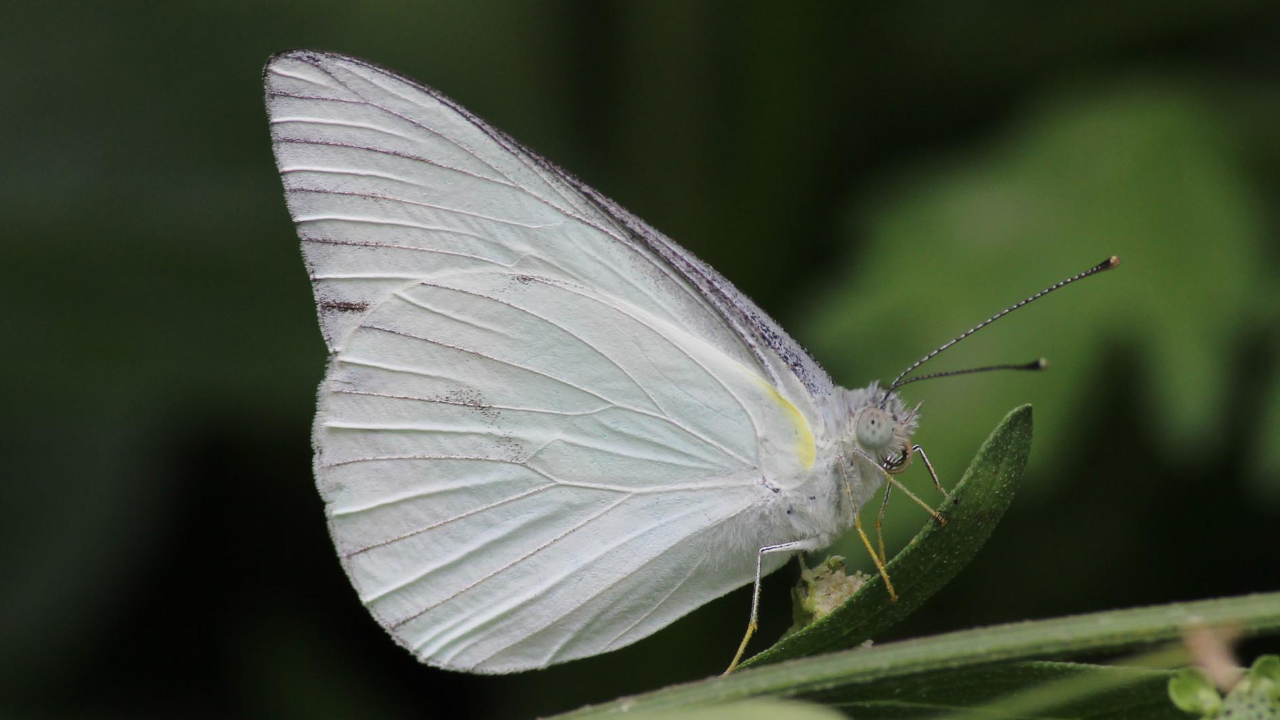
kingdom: Animalia
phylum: Arthropoda
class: Insecta
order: Lepidoptera
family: Pieridae
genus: Appias
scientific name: Appias libythea
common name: Striped albatross
